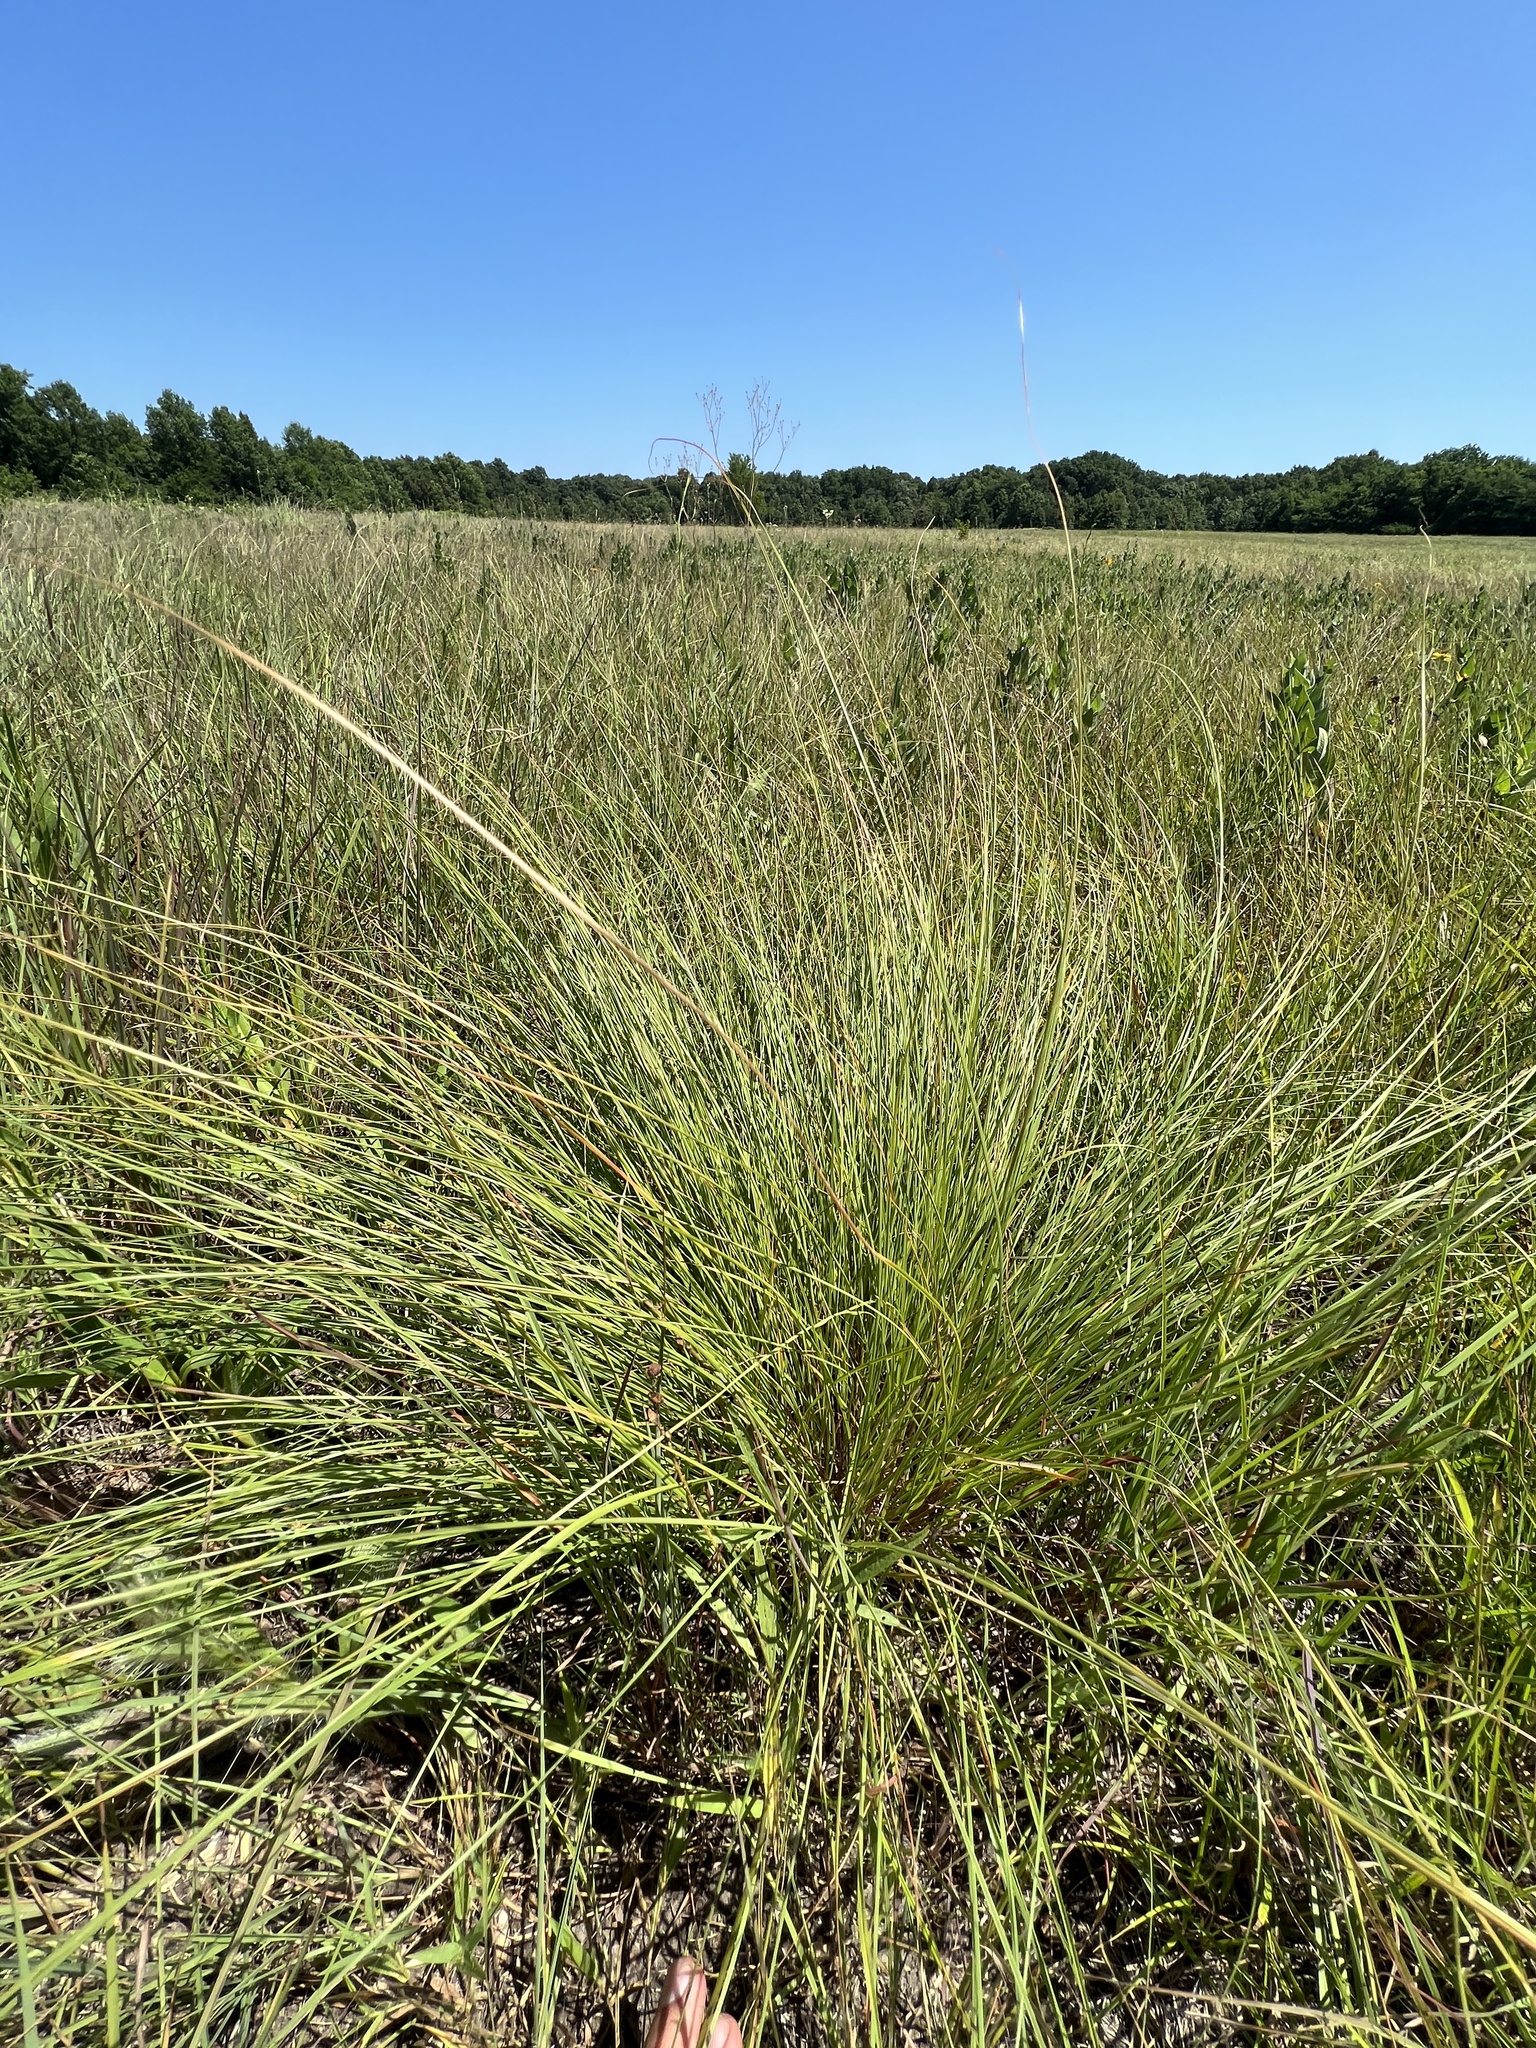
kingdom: Plantae
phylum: Tracheophyta
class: Liliopsida
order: Poales
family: Poaceae
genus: Sporobolus
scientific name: Sporobolus heterolepis
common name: Prairie dropseed
